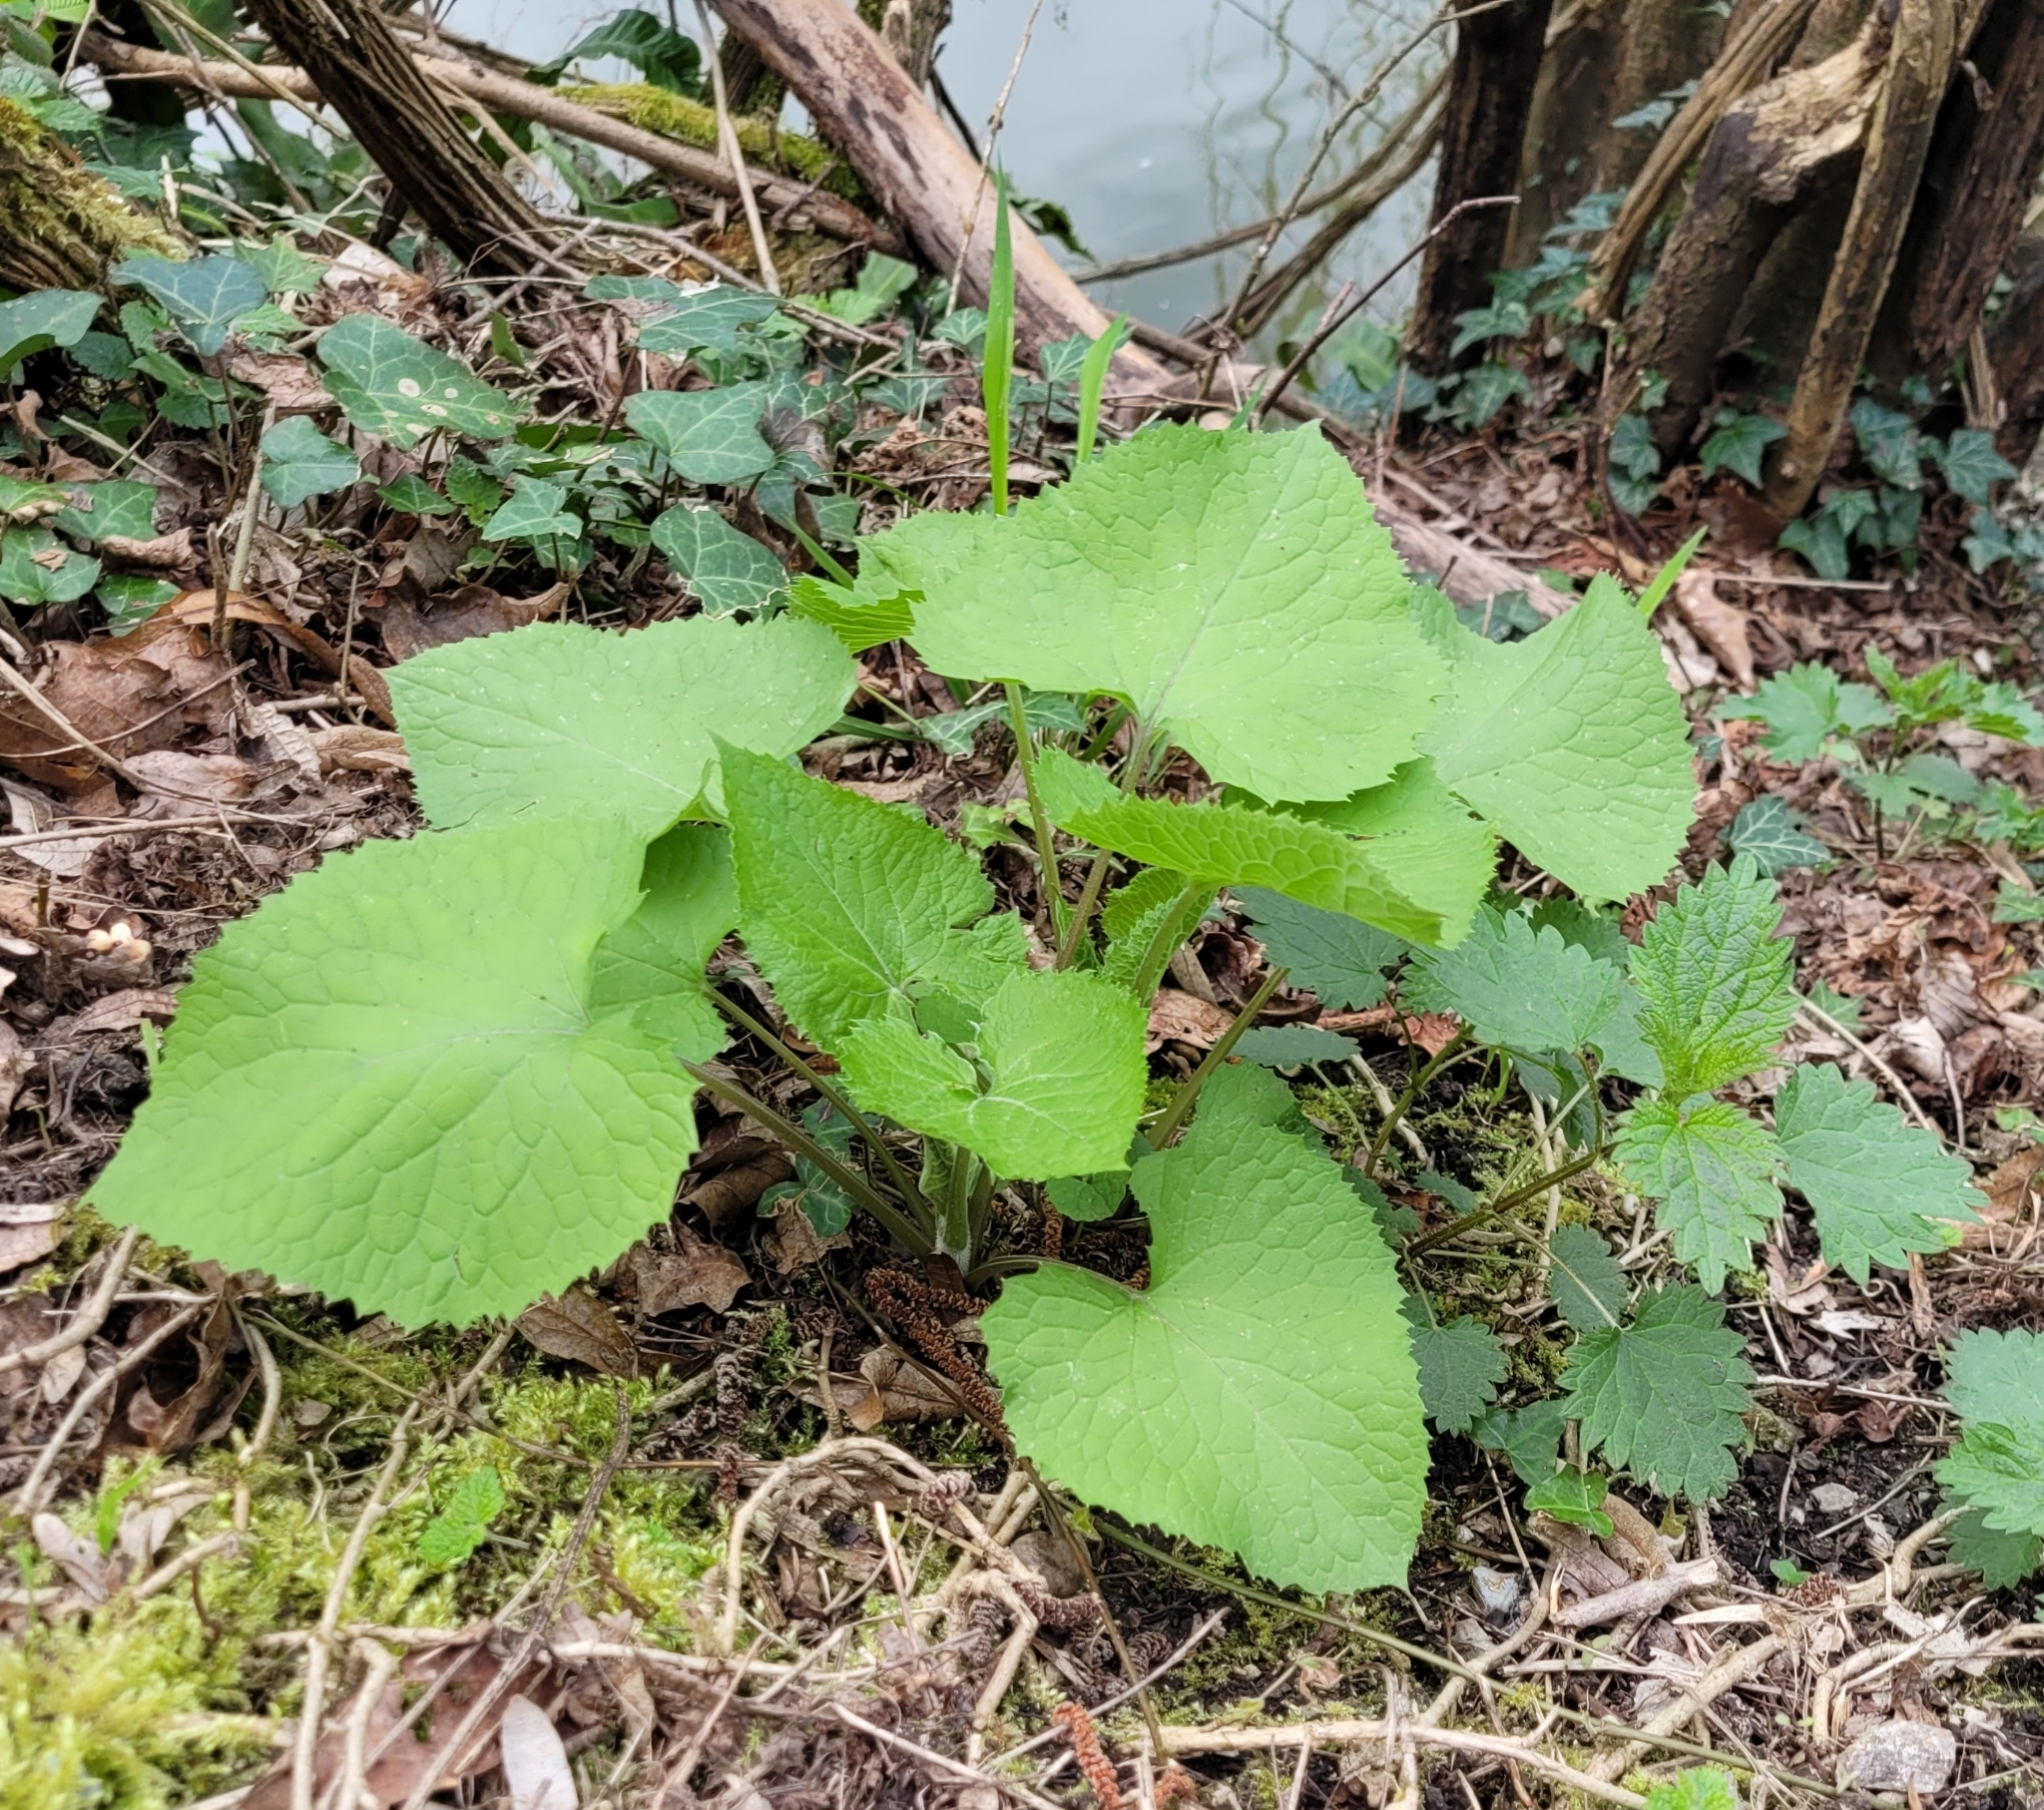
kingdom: Plantae
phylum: Tracheophyta
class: Magnoliopsida
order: Brassicales
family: Brassicaceae
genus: Lunaria
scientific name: Lunaria rediviva
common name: Perennial honesty
